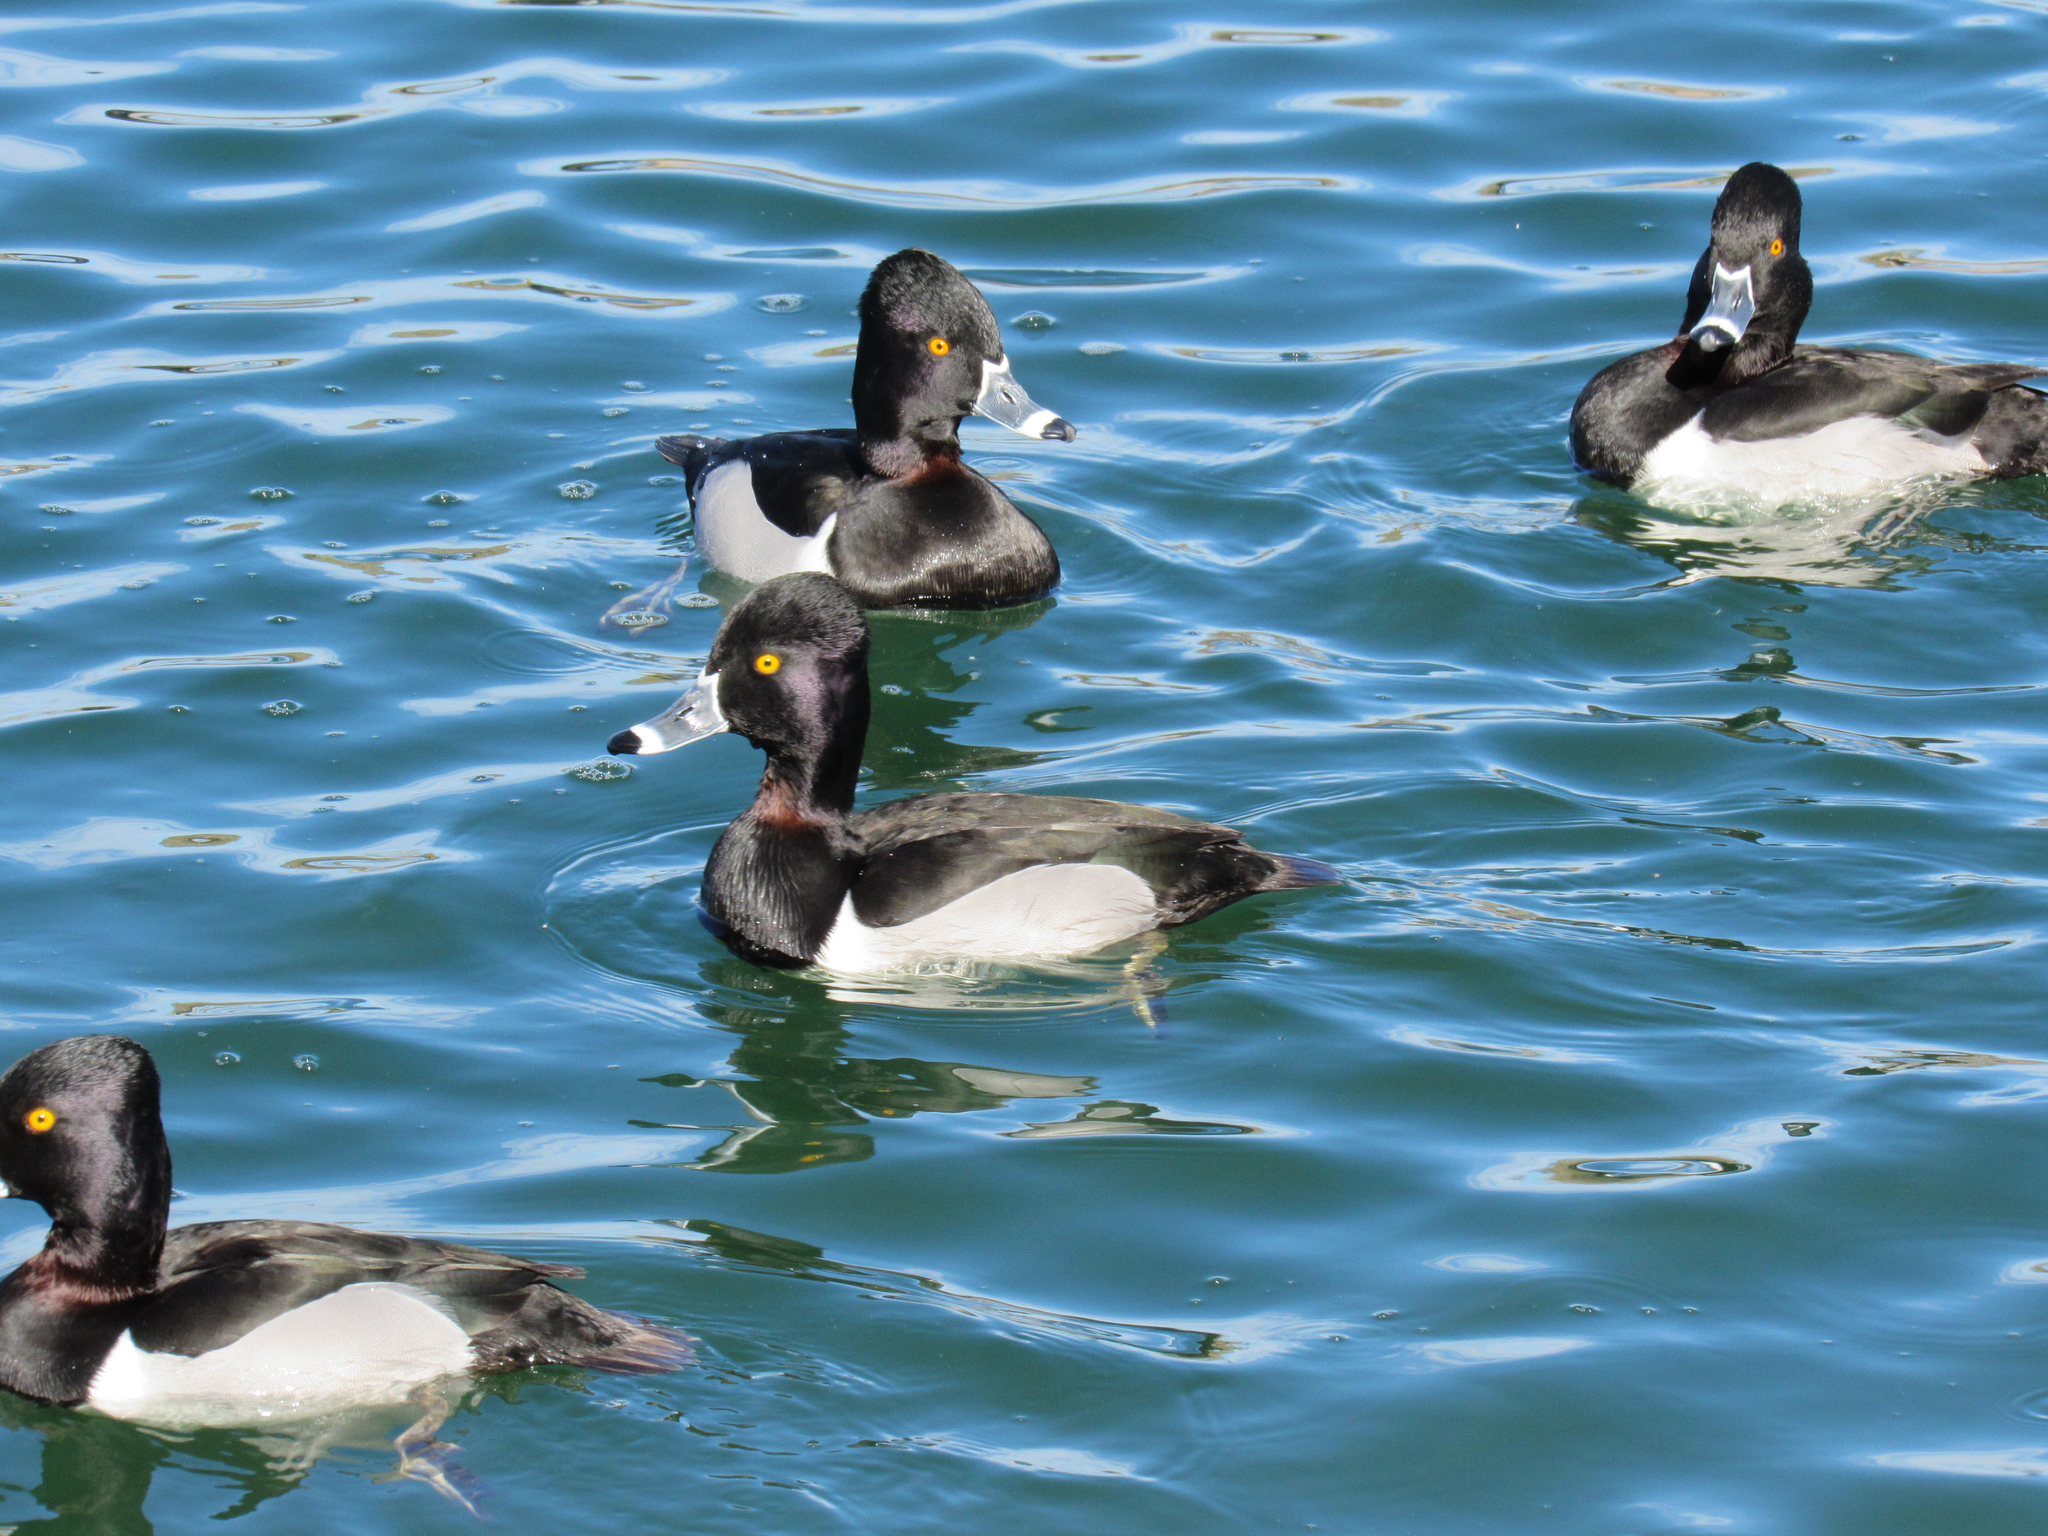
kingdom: Animalia
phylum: Chordata
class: Aves
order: Anseriformes
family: Anatidae
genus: Aythya
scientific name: Aythya collaris
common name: Ring-necked duck
